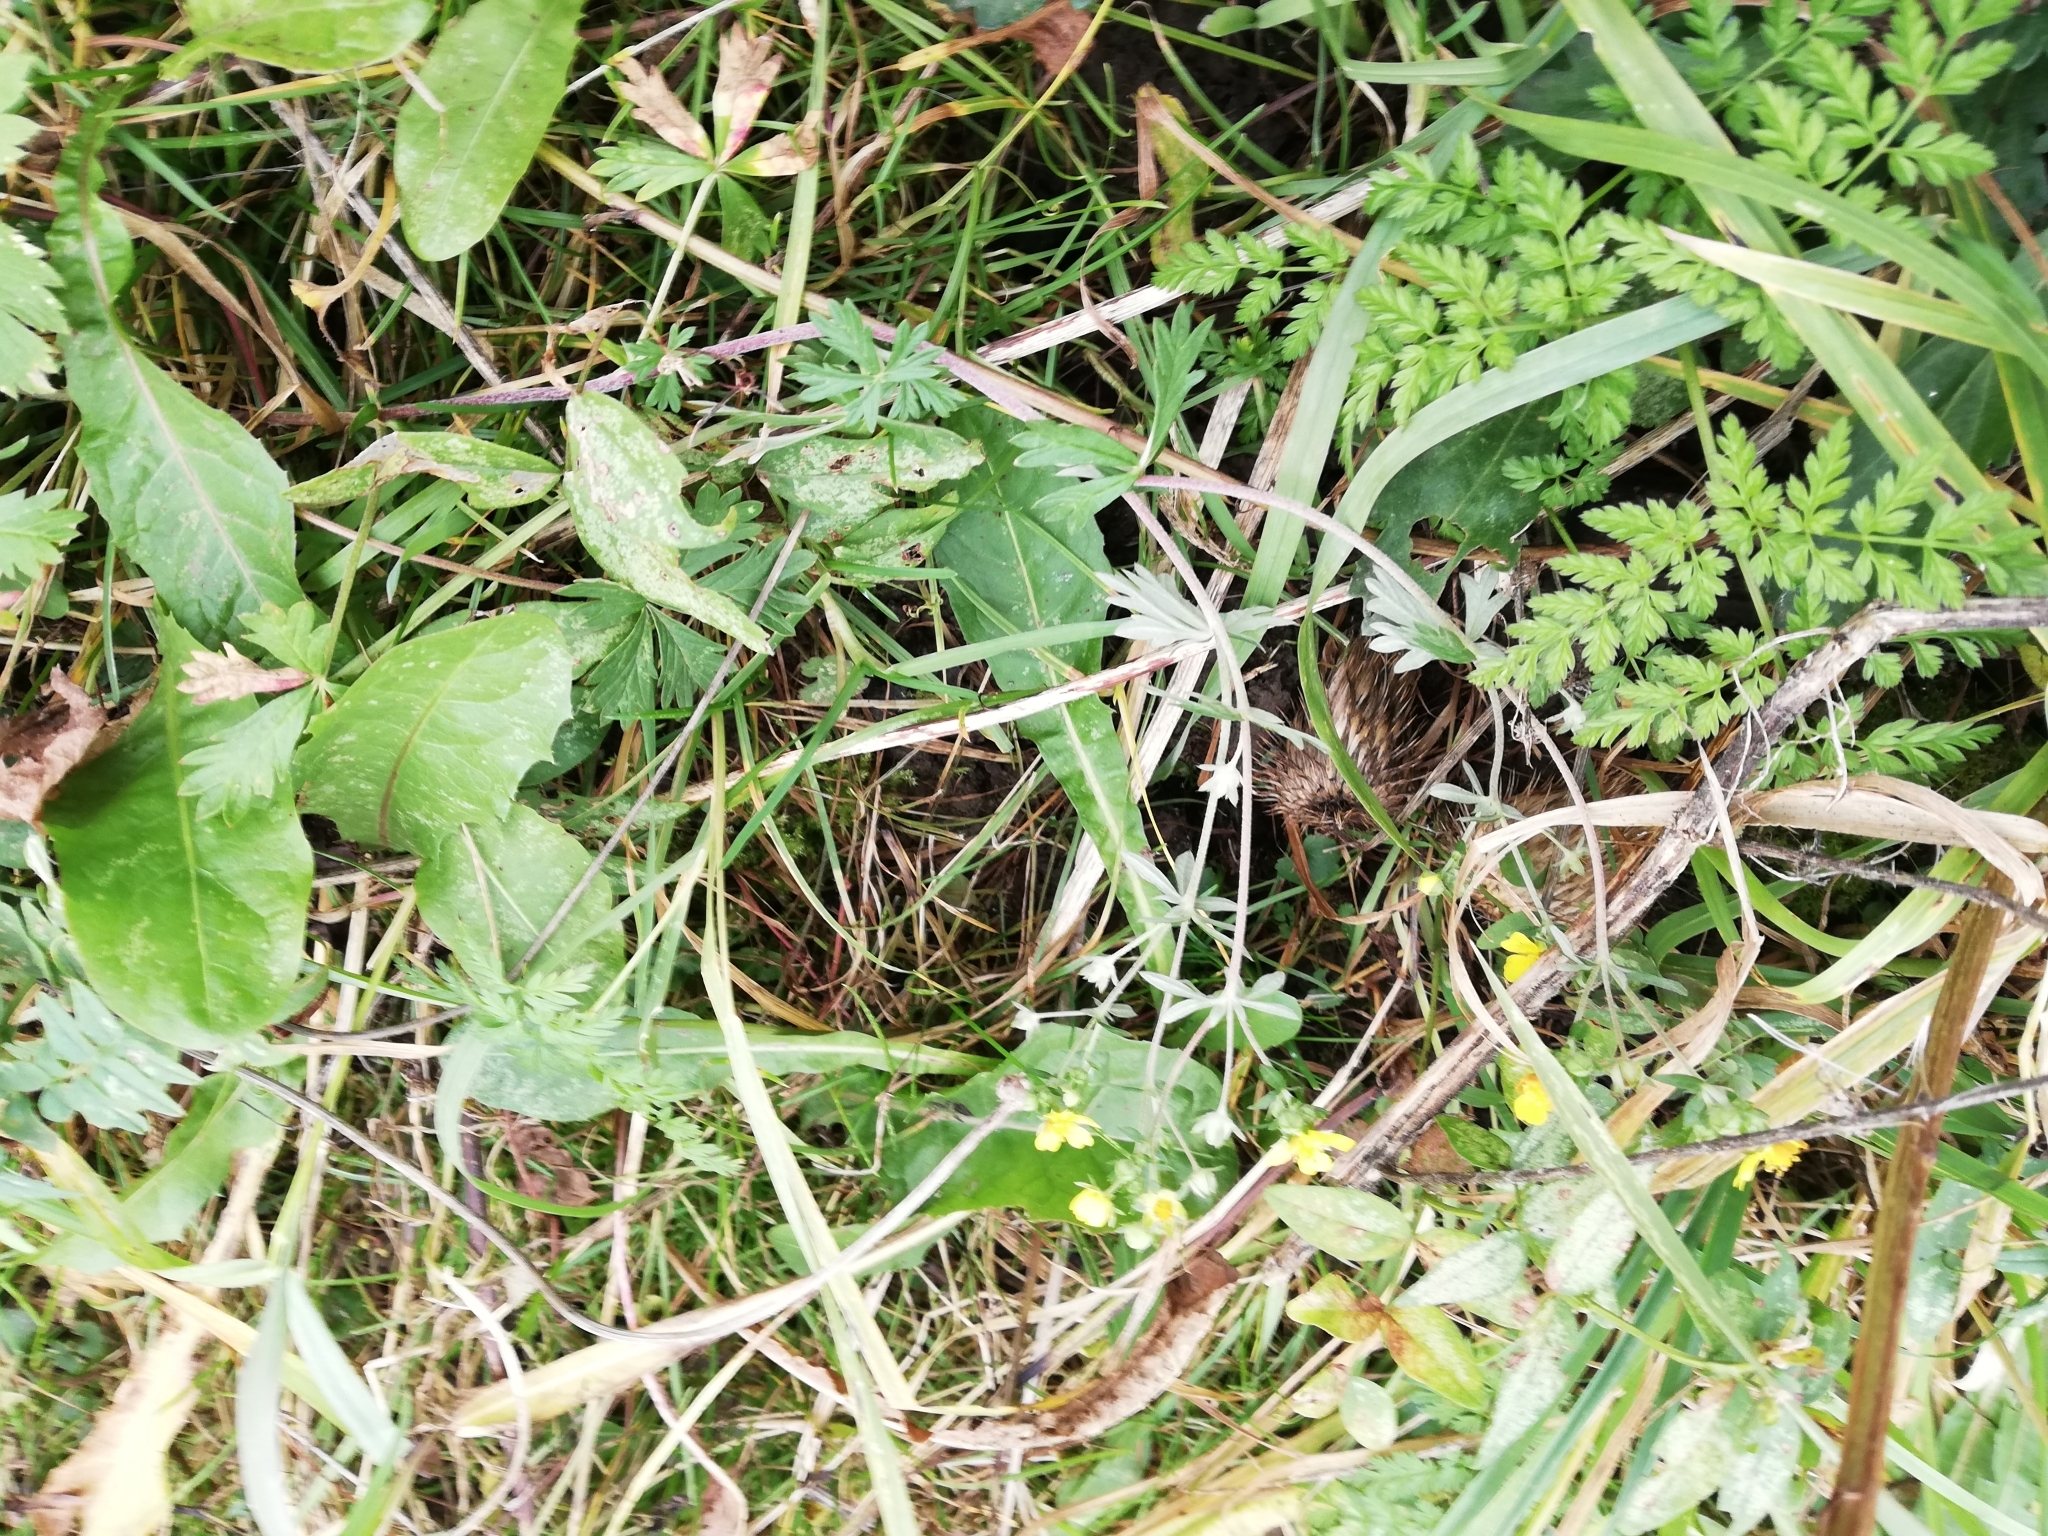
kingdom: Plantae
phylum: Tracheophyta
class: Magnoliopsida
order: Rosales
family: Rosaceae
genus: Potentilla
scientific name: Potentilla argentea
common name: Hoary cinquefoil
